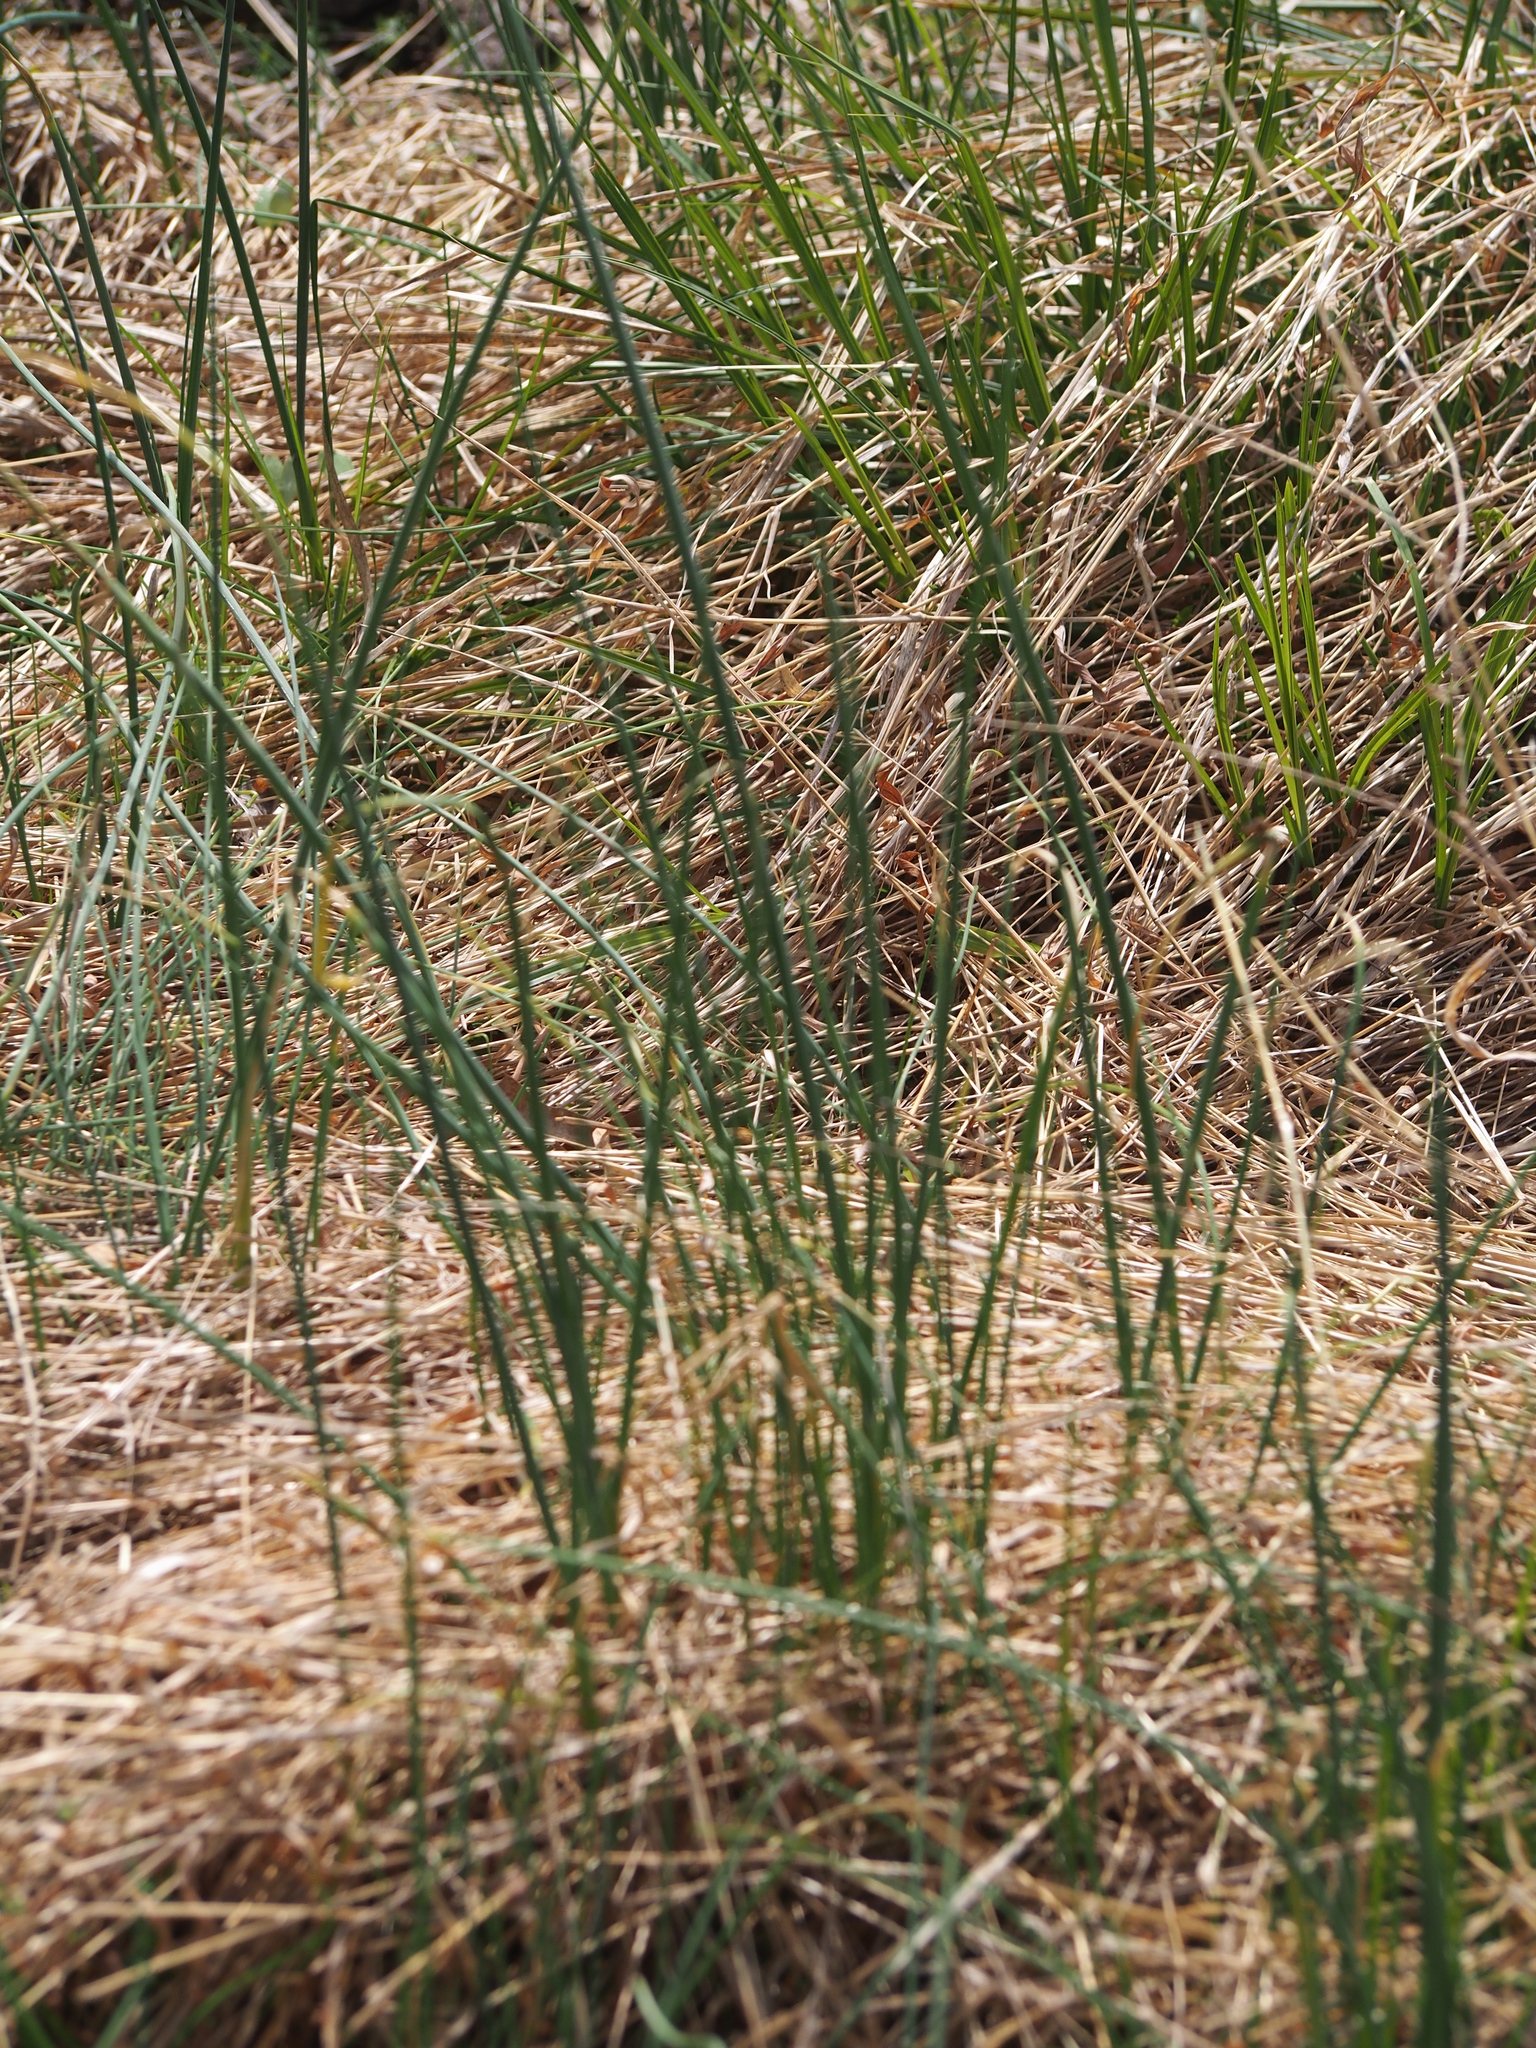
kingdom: Plantae
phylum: Tracheophyta
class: Liliopsida
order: Asparagales
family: Amaryllidaceae
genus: Allium
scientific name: Allium vineale
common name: Crow garlic
